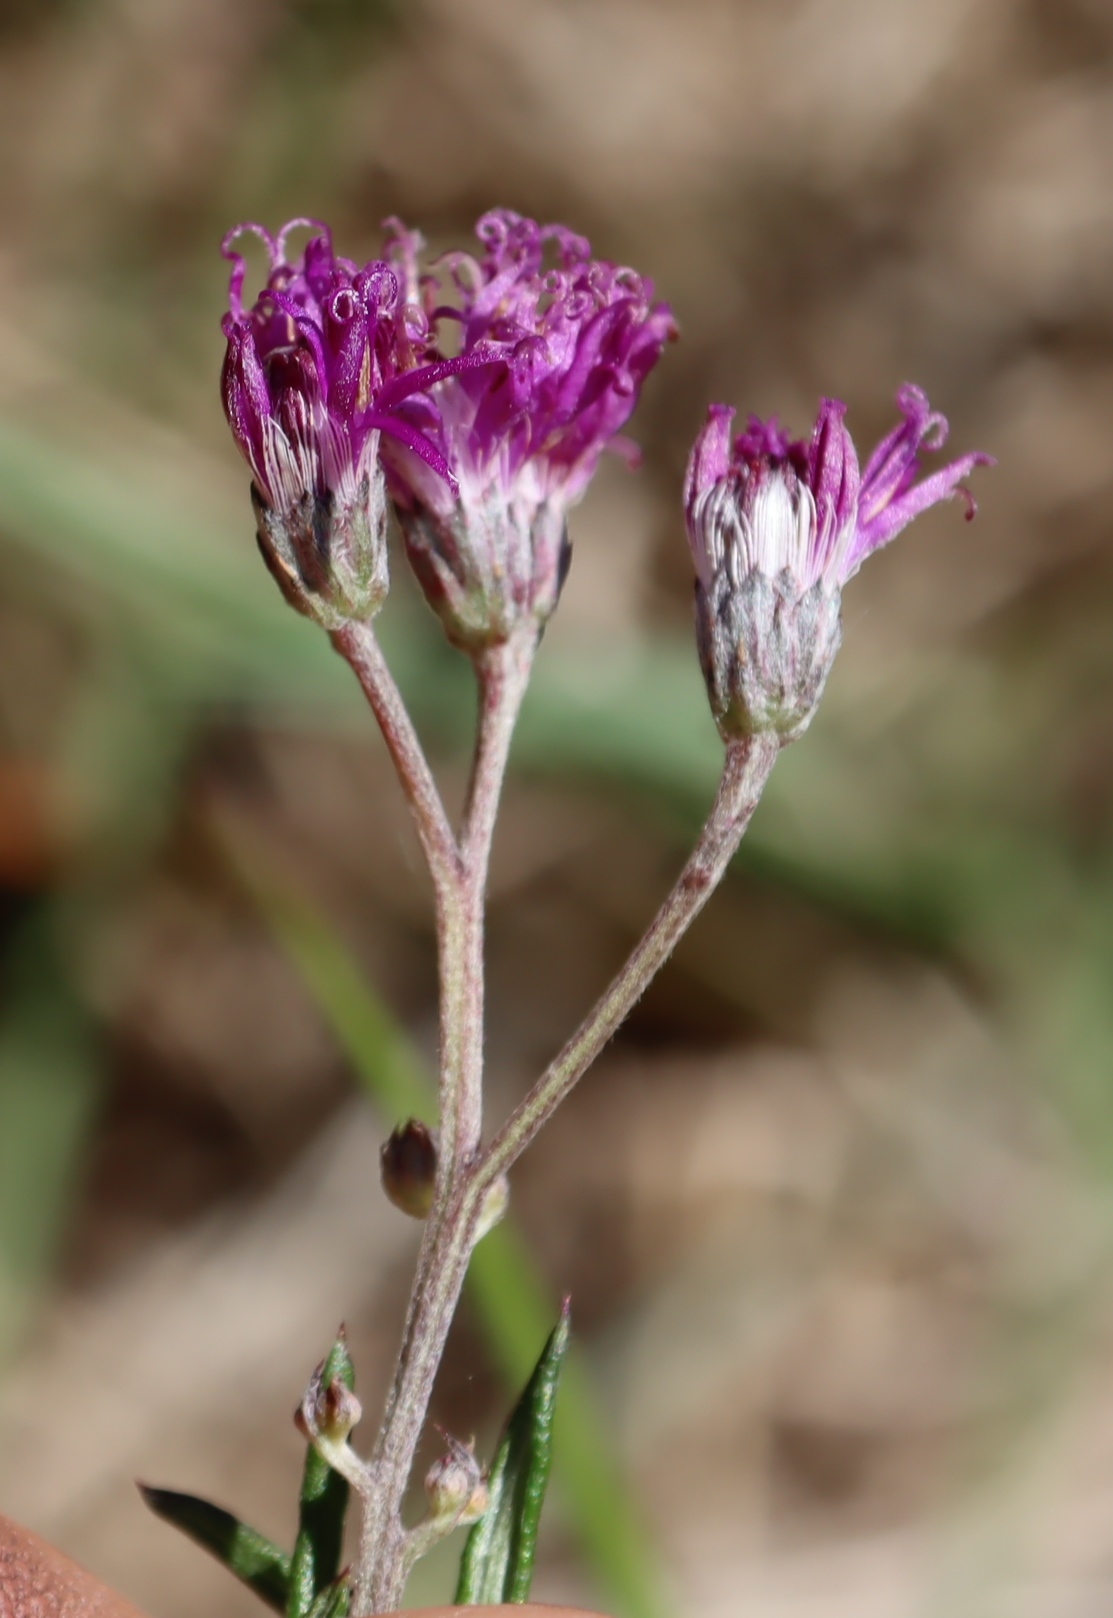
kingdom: Plantae
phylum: Tracheophyta
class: Magnoliopsida
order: Asterales
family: Asteraceae
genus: Hilliardiella
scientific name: Hilliardiella capensis
